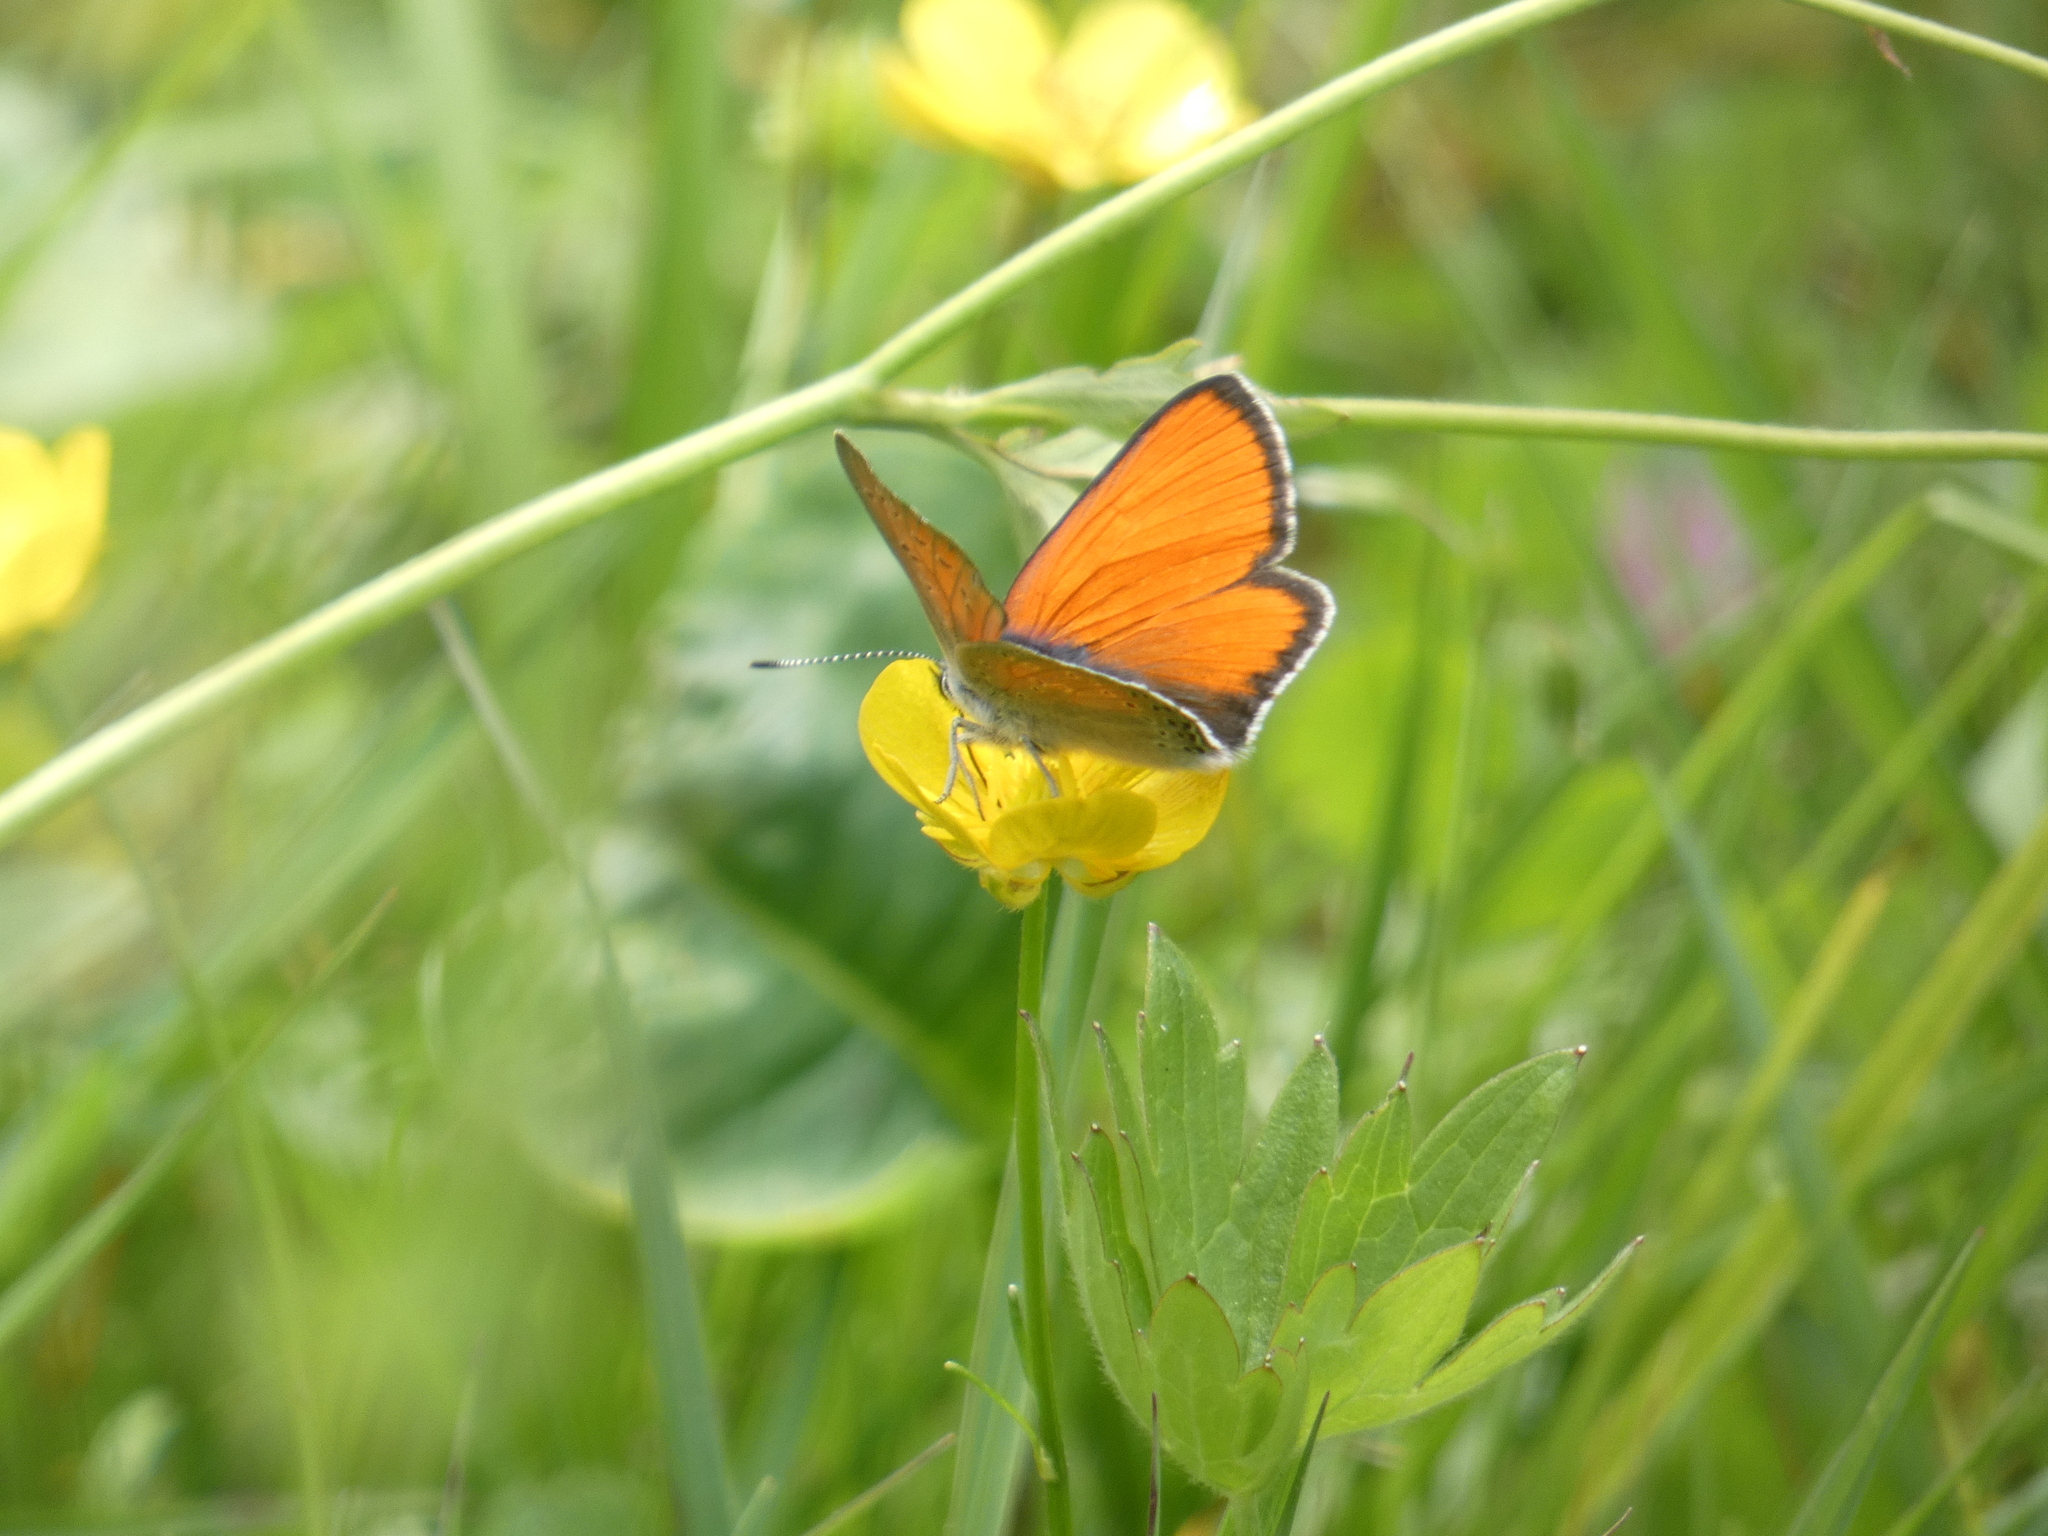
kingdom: Animalia
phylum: Arthropoda
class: Insecta
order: Lepidoptera
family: Lycaenidae
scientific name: Lycaenidae
